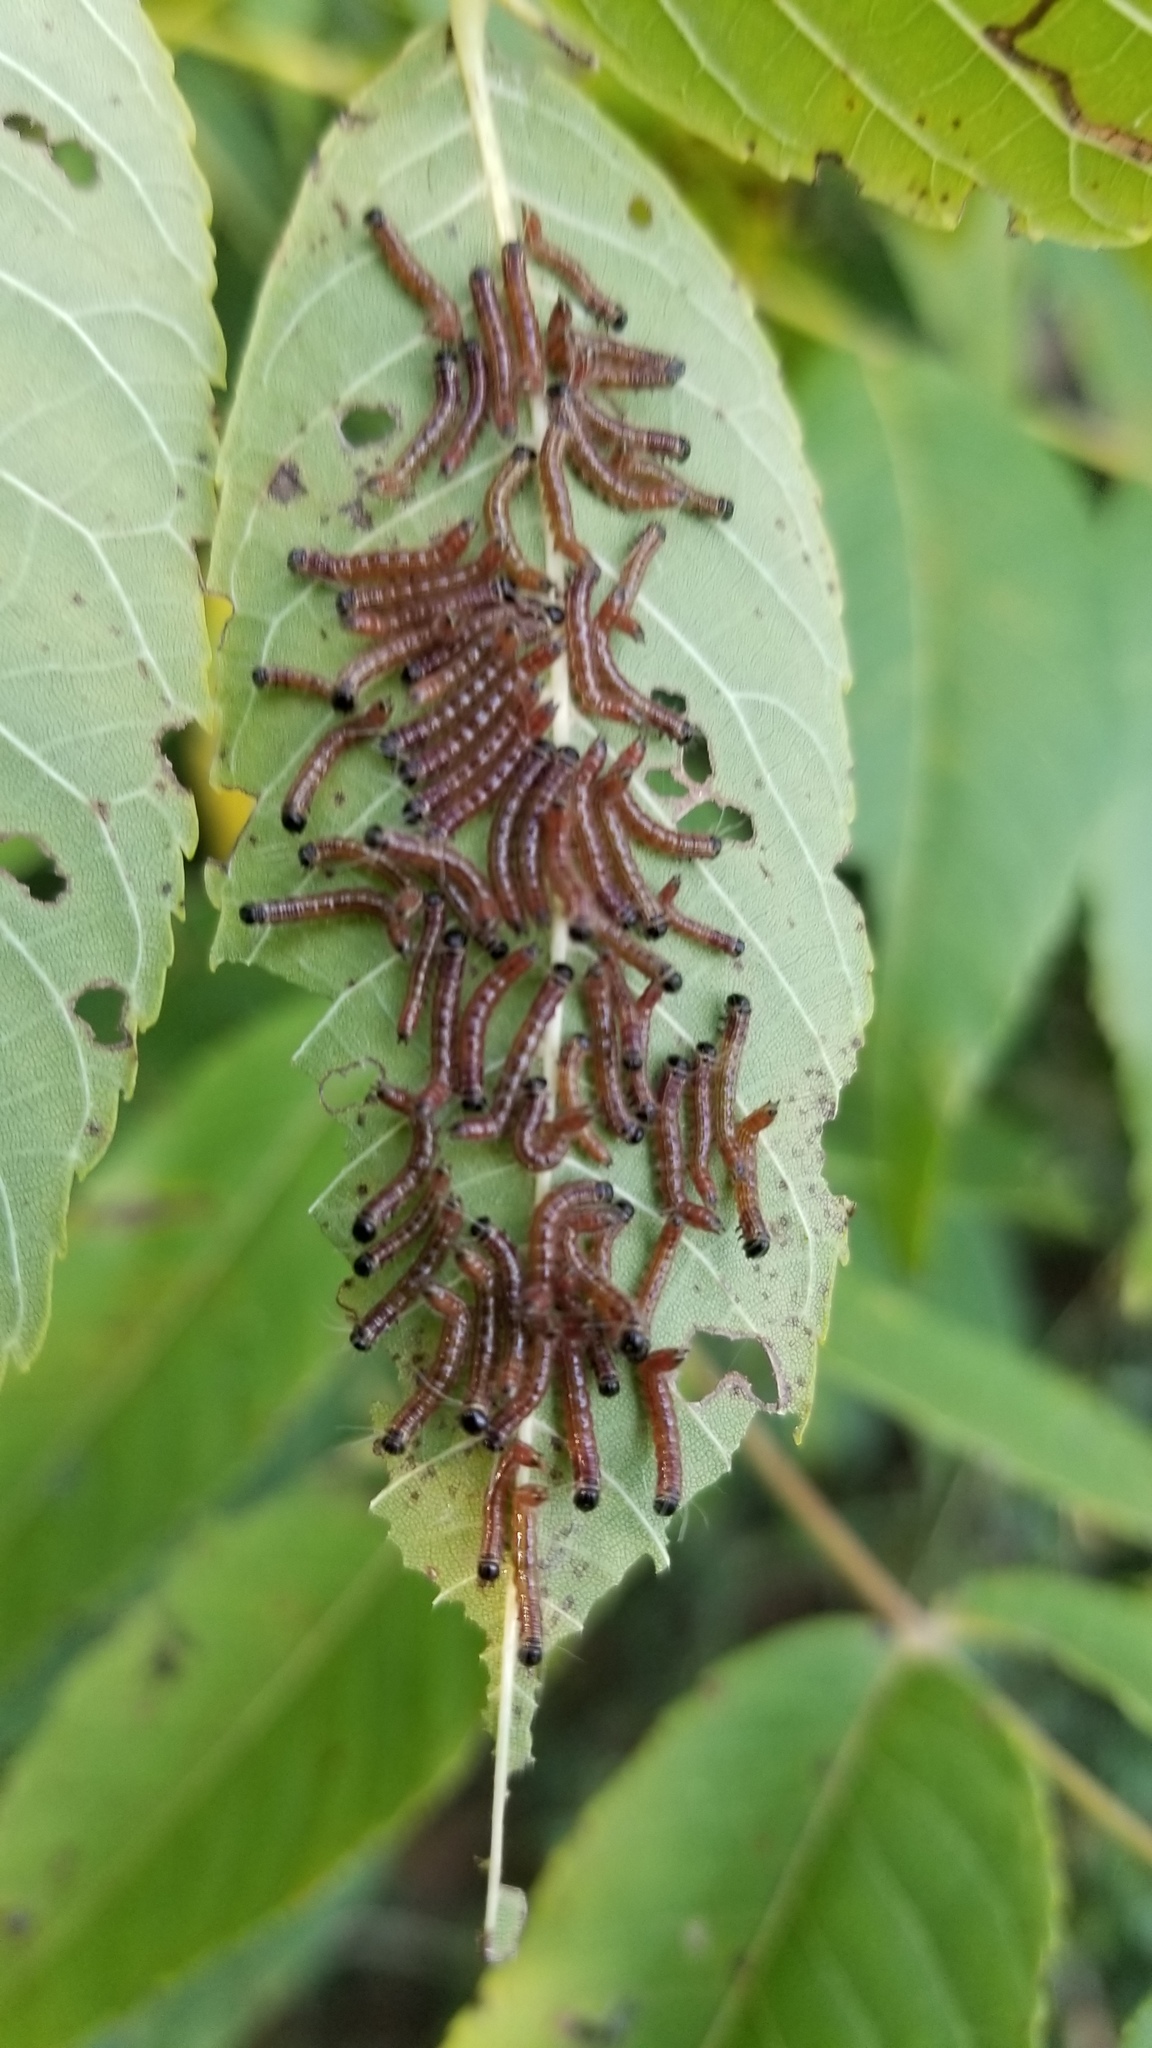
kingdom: Animalia
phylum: Arthropoda
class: Insecta
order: Lepidoptera
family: Notodontidae
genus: Datana
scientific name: Datana integerrima
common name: Walnut caterpillar
